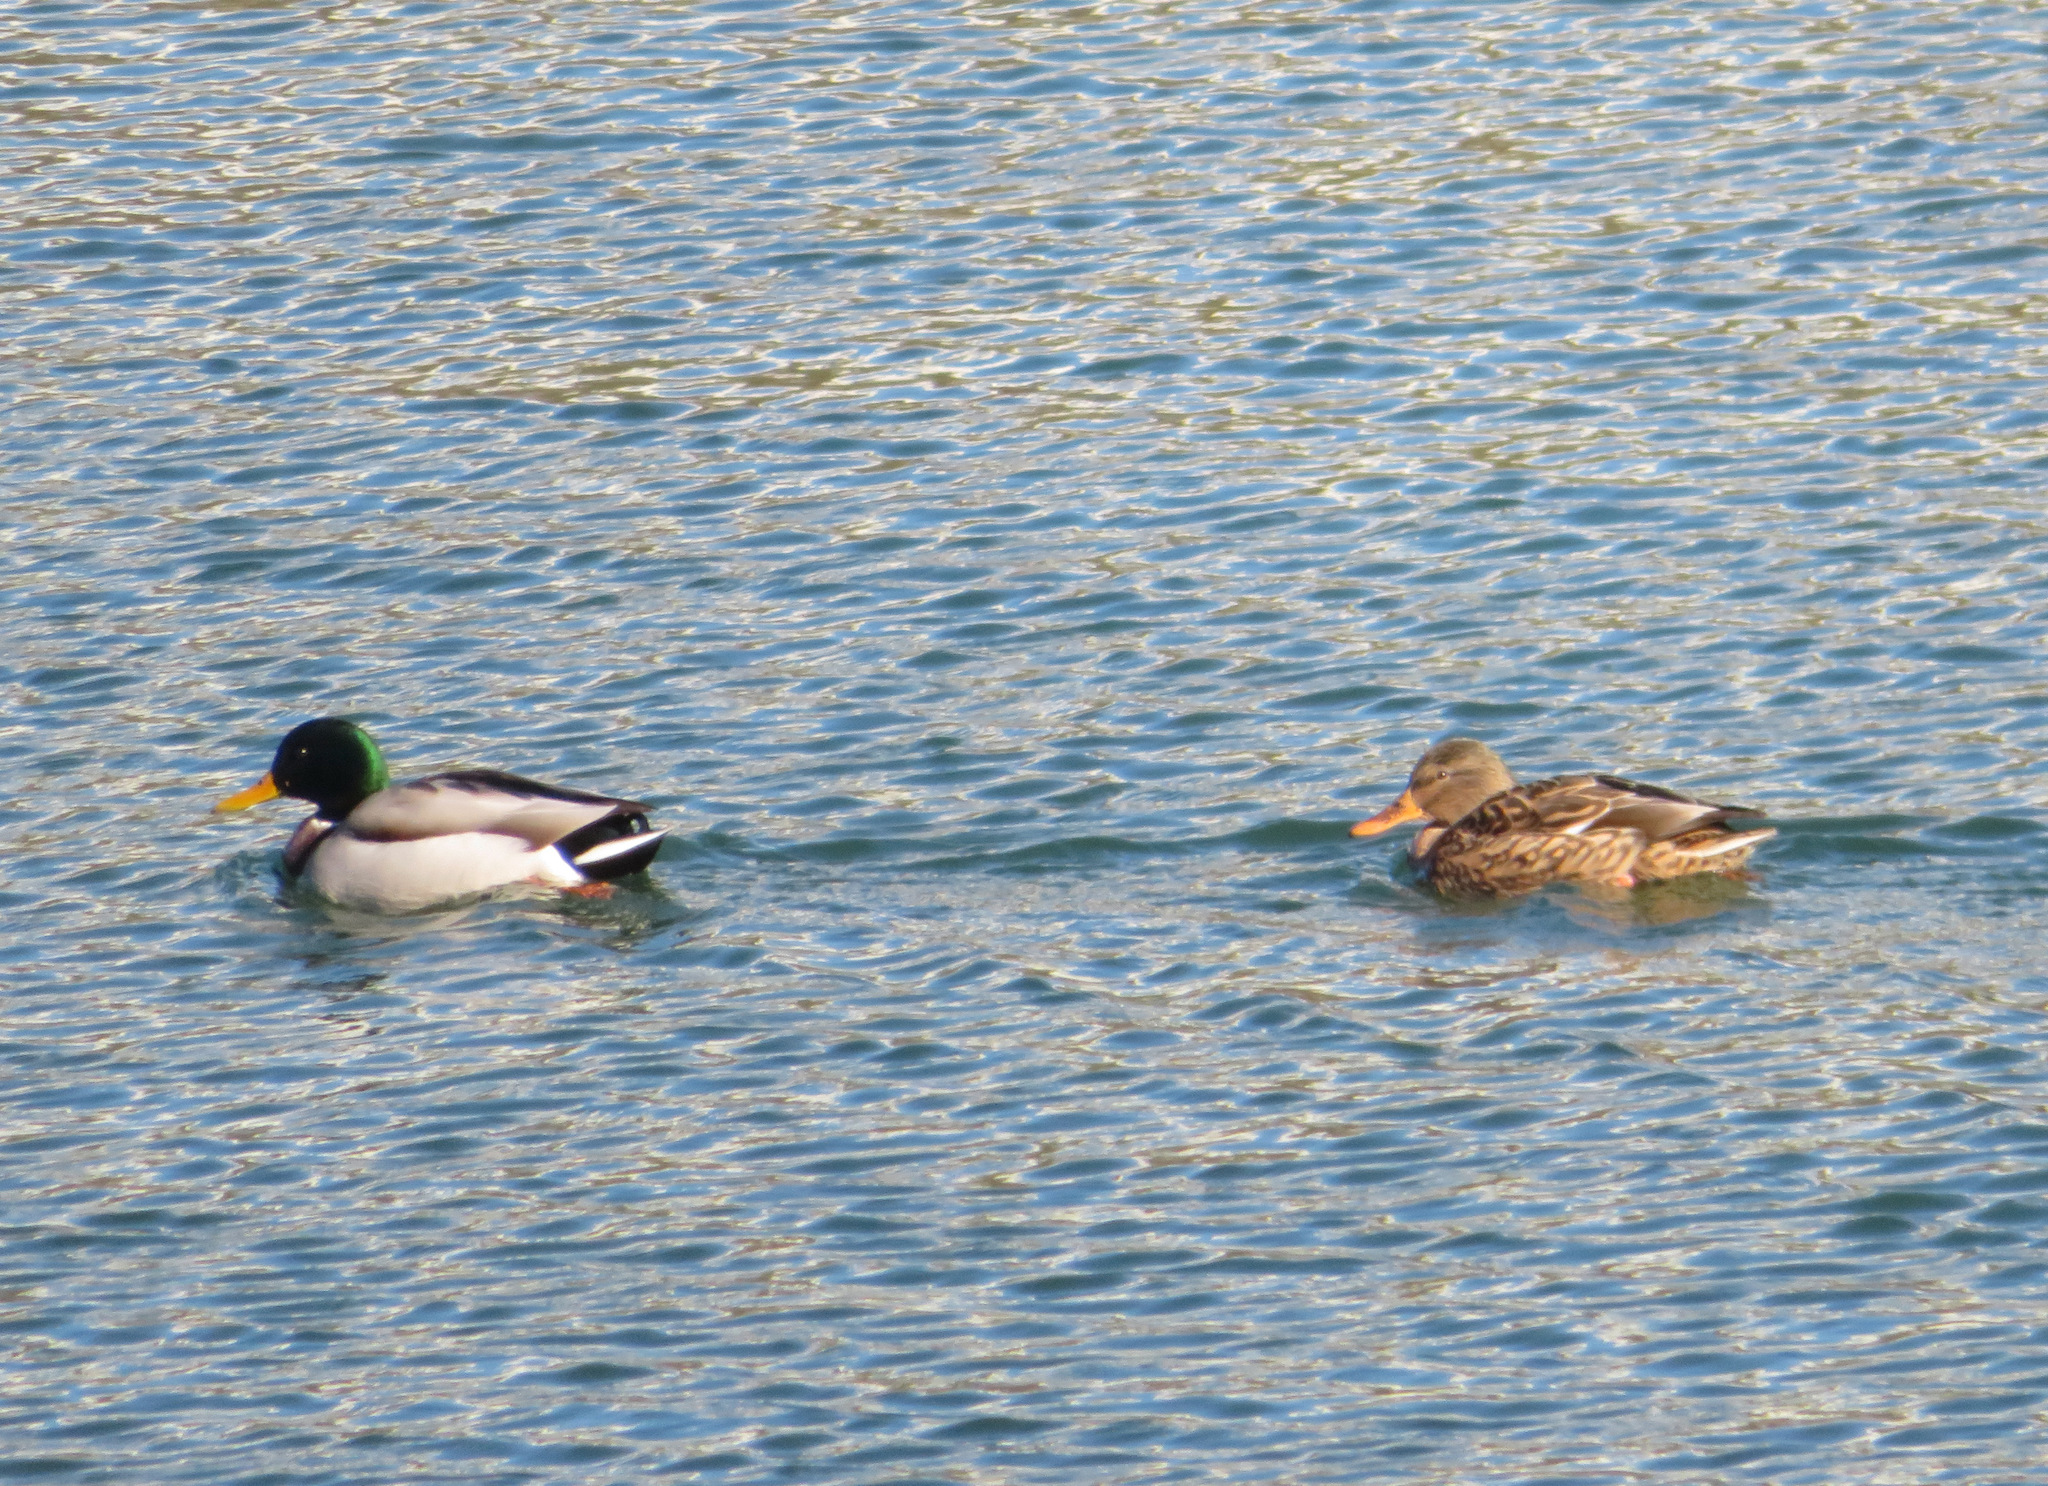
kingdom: Animalia
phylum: Chordata
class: Aves
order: Anseriformes
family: Anatidae
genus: Anas
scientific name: Anas platyrhynchos
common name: Mallard
